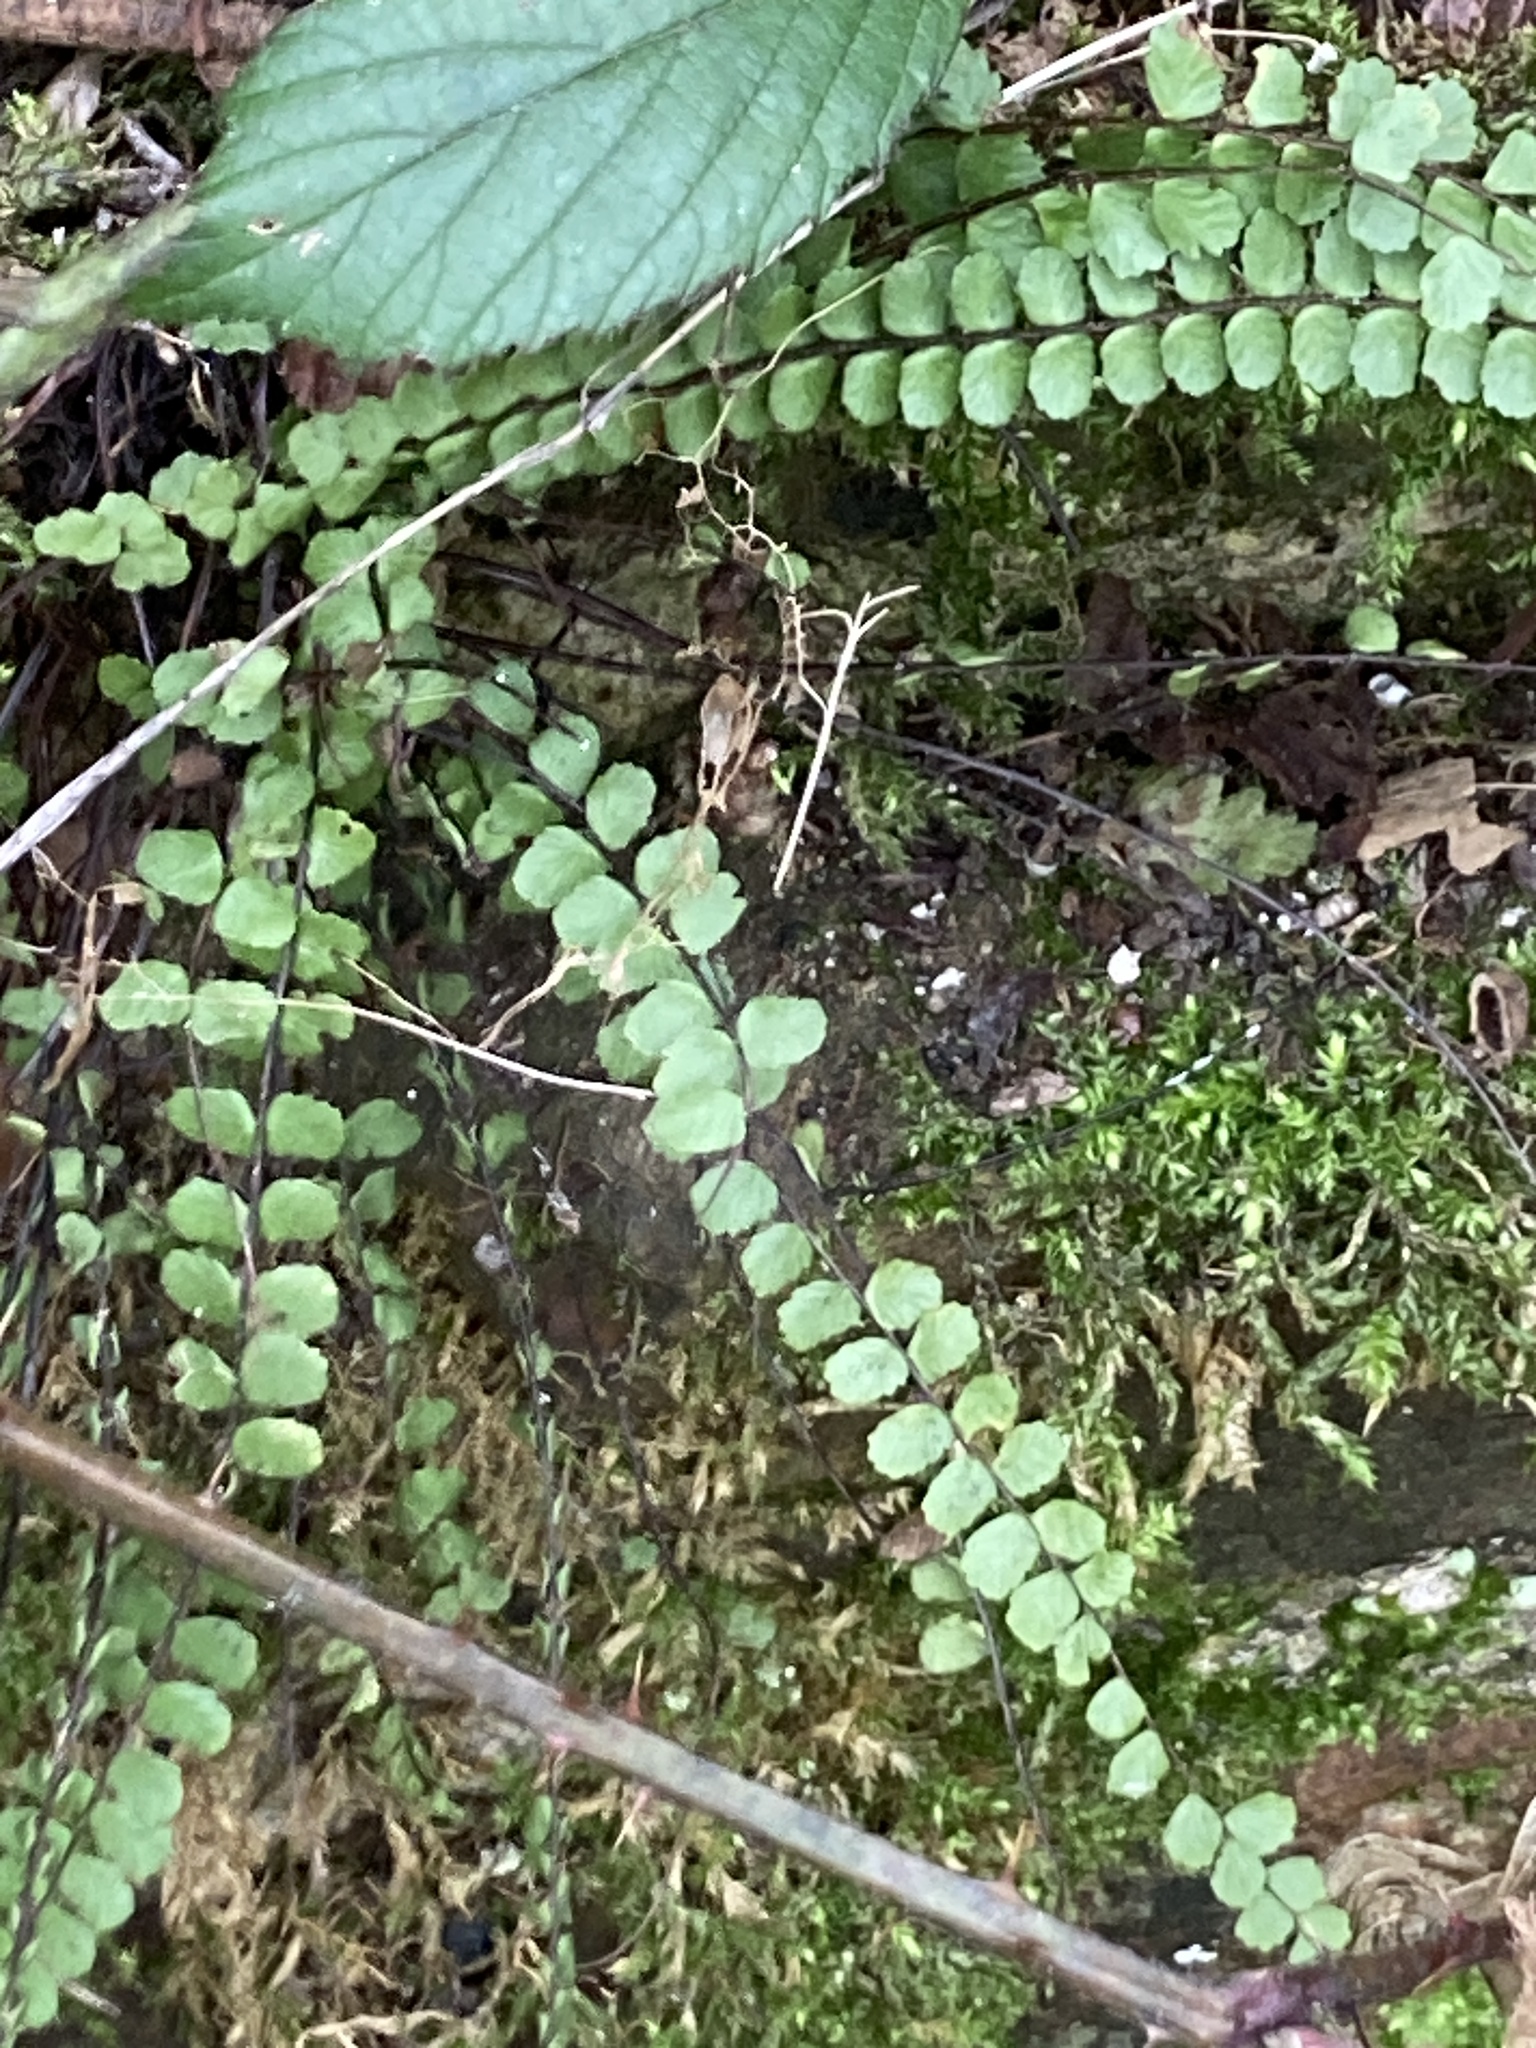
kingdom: Plantae
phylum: Tracheophyta
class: Polypodiopsida
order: Polypodiales
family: Aspleniaceae
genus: Asplenium
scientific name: Asplenium trichomanes
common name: Maidenhair spleenwort
